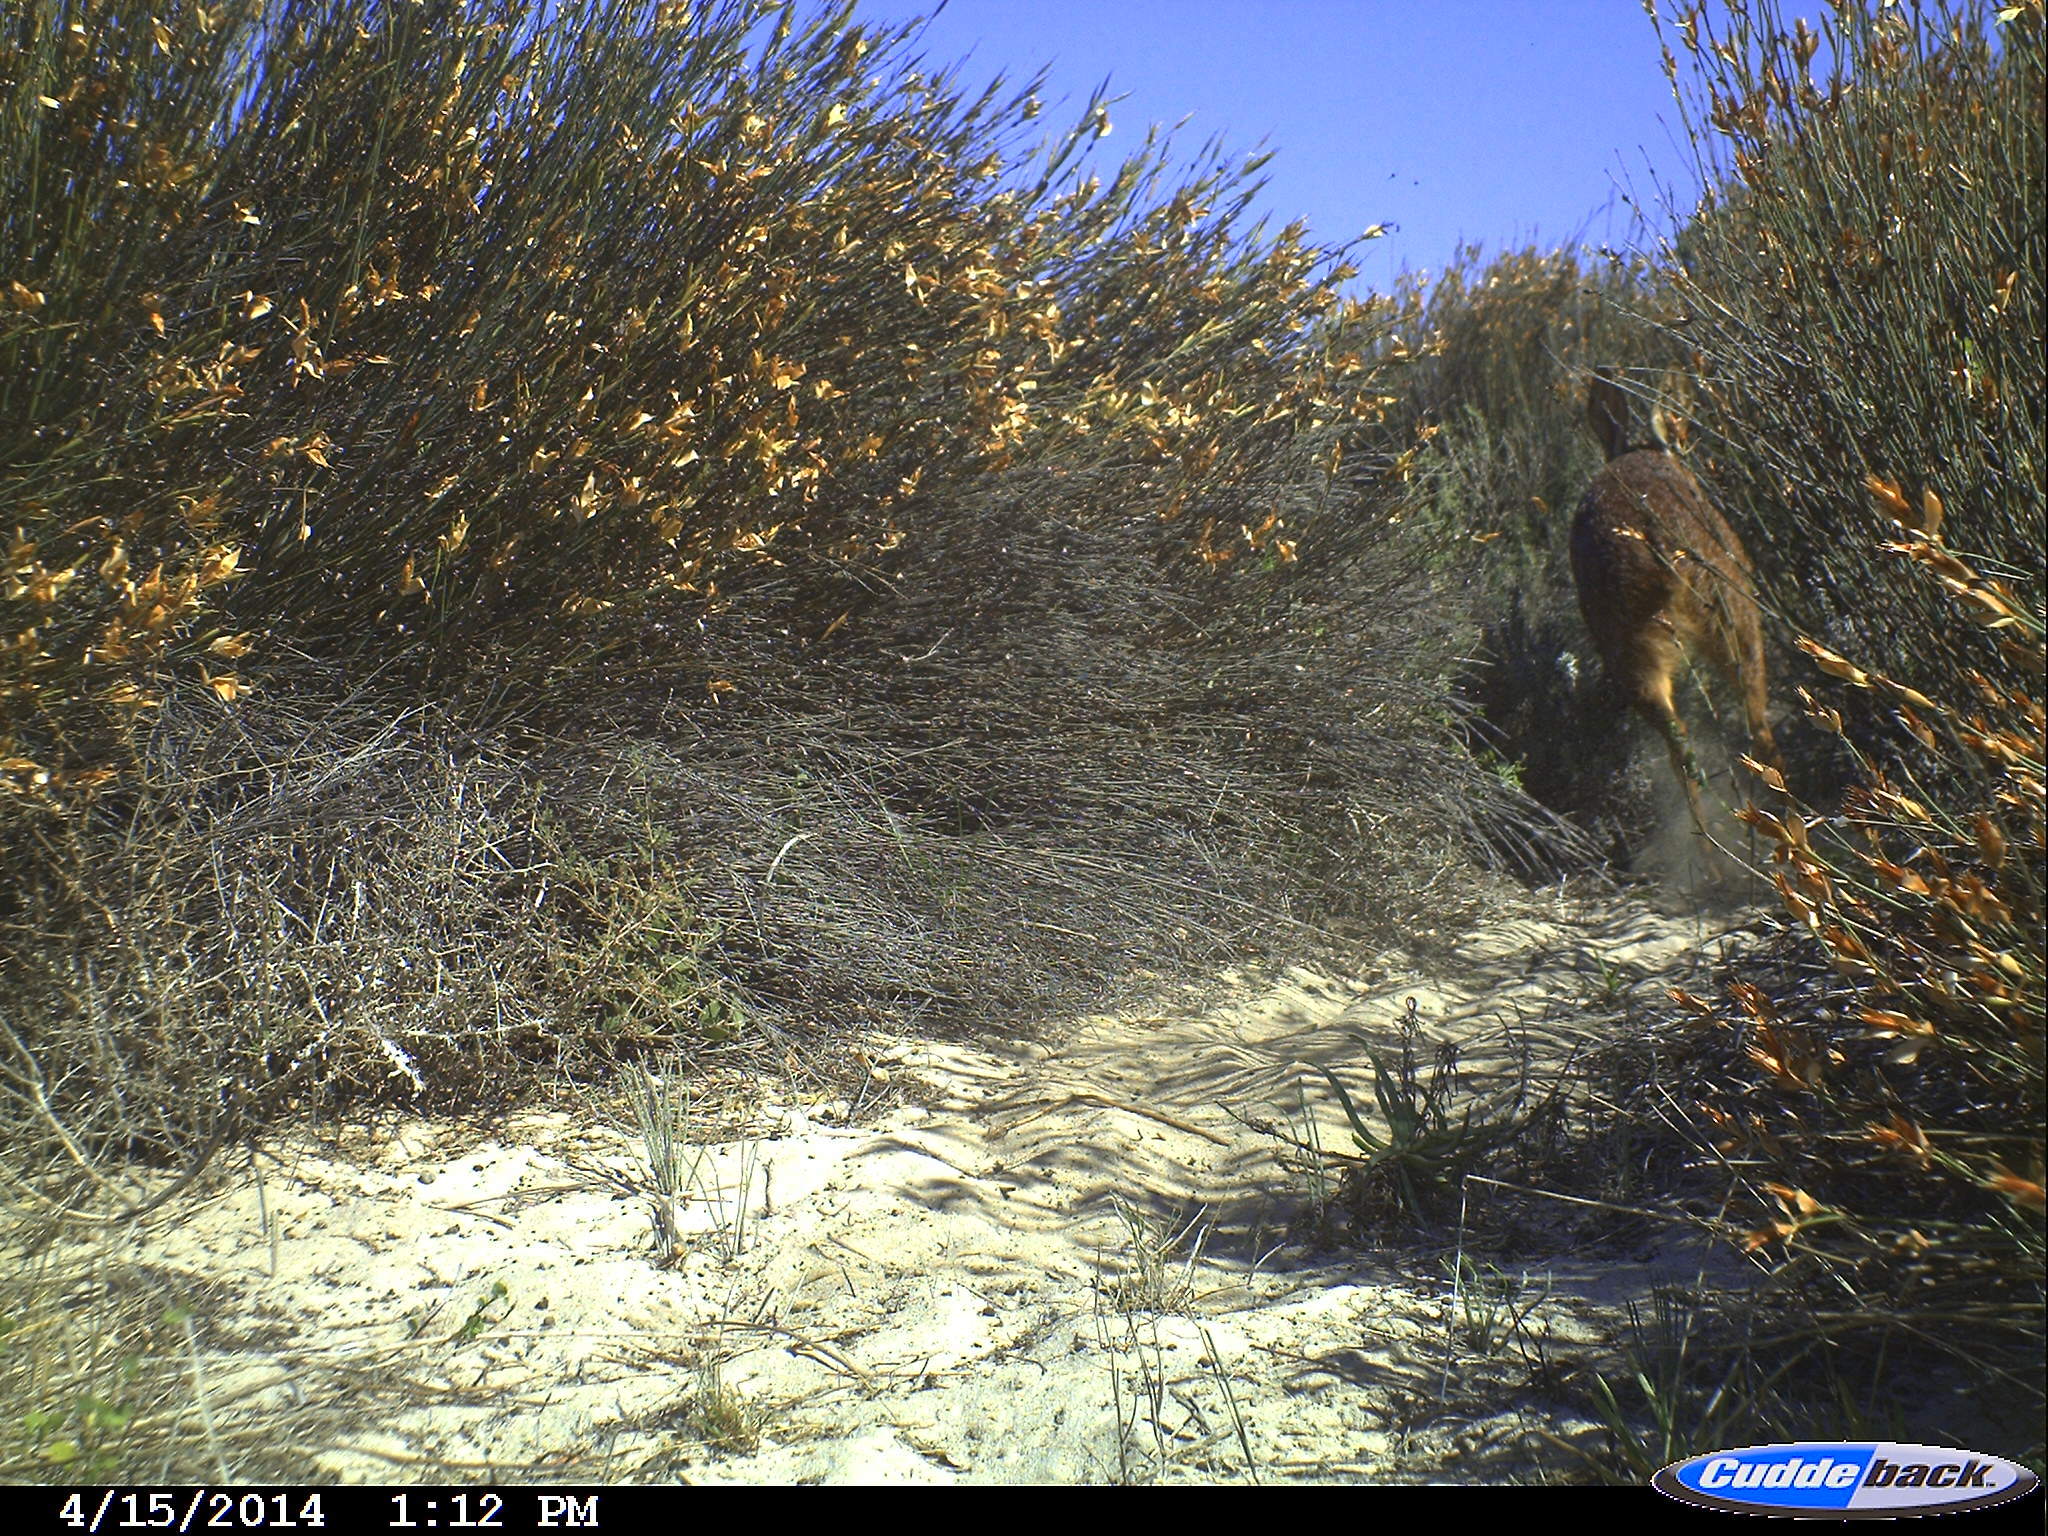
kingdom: Animalia
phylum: Chordata
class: Mammalia
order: Artiodactyla
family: Bovidae
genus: Raphicerus
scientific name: Raphicerus melanotis
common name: Cape grysbok
